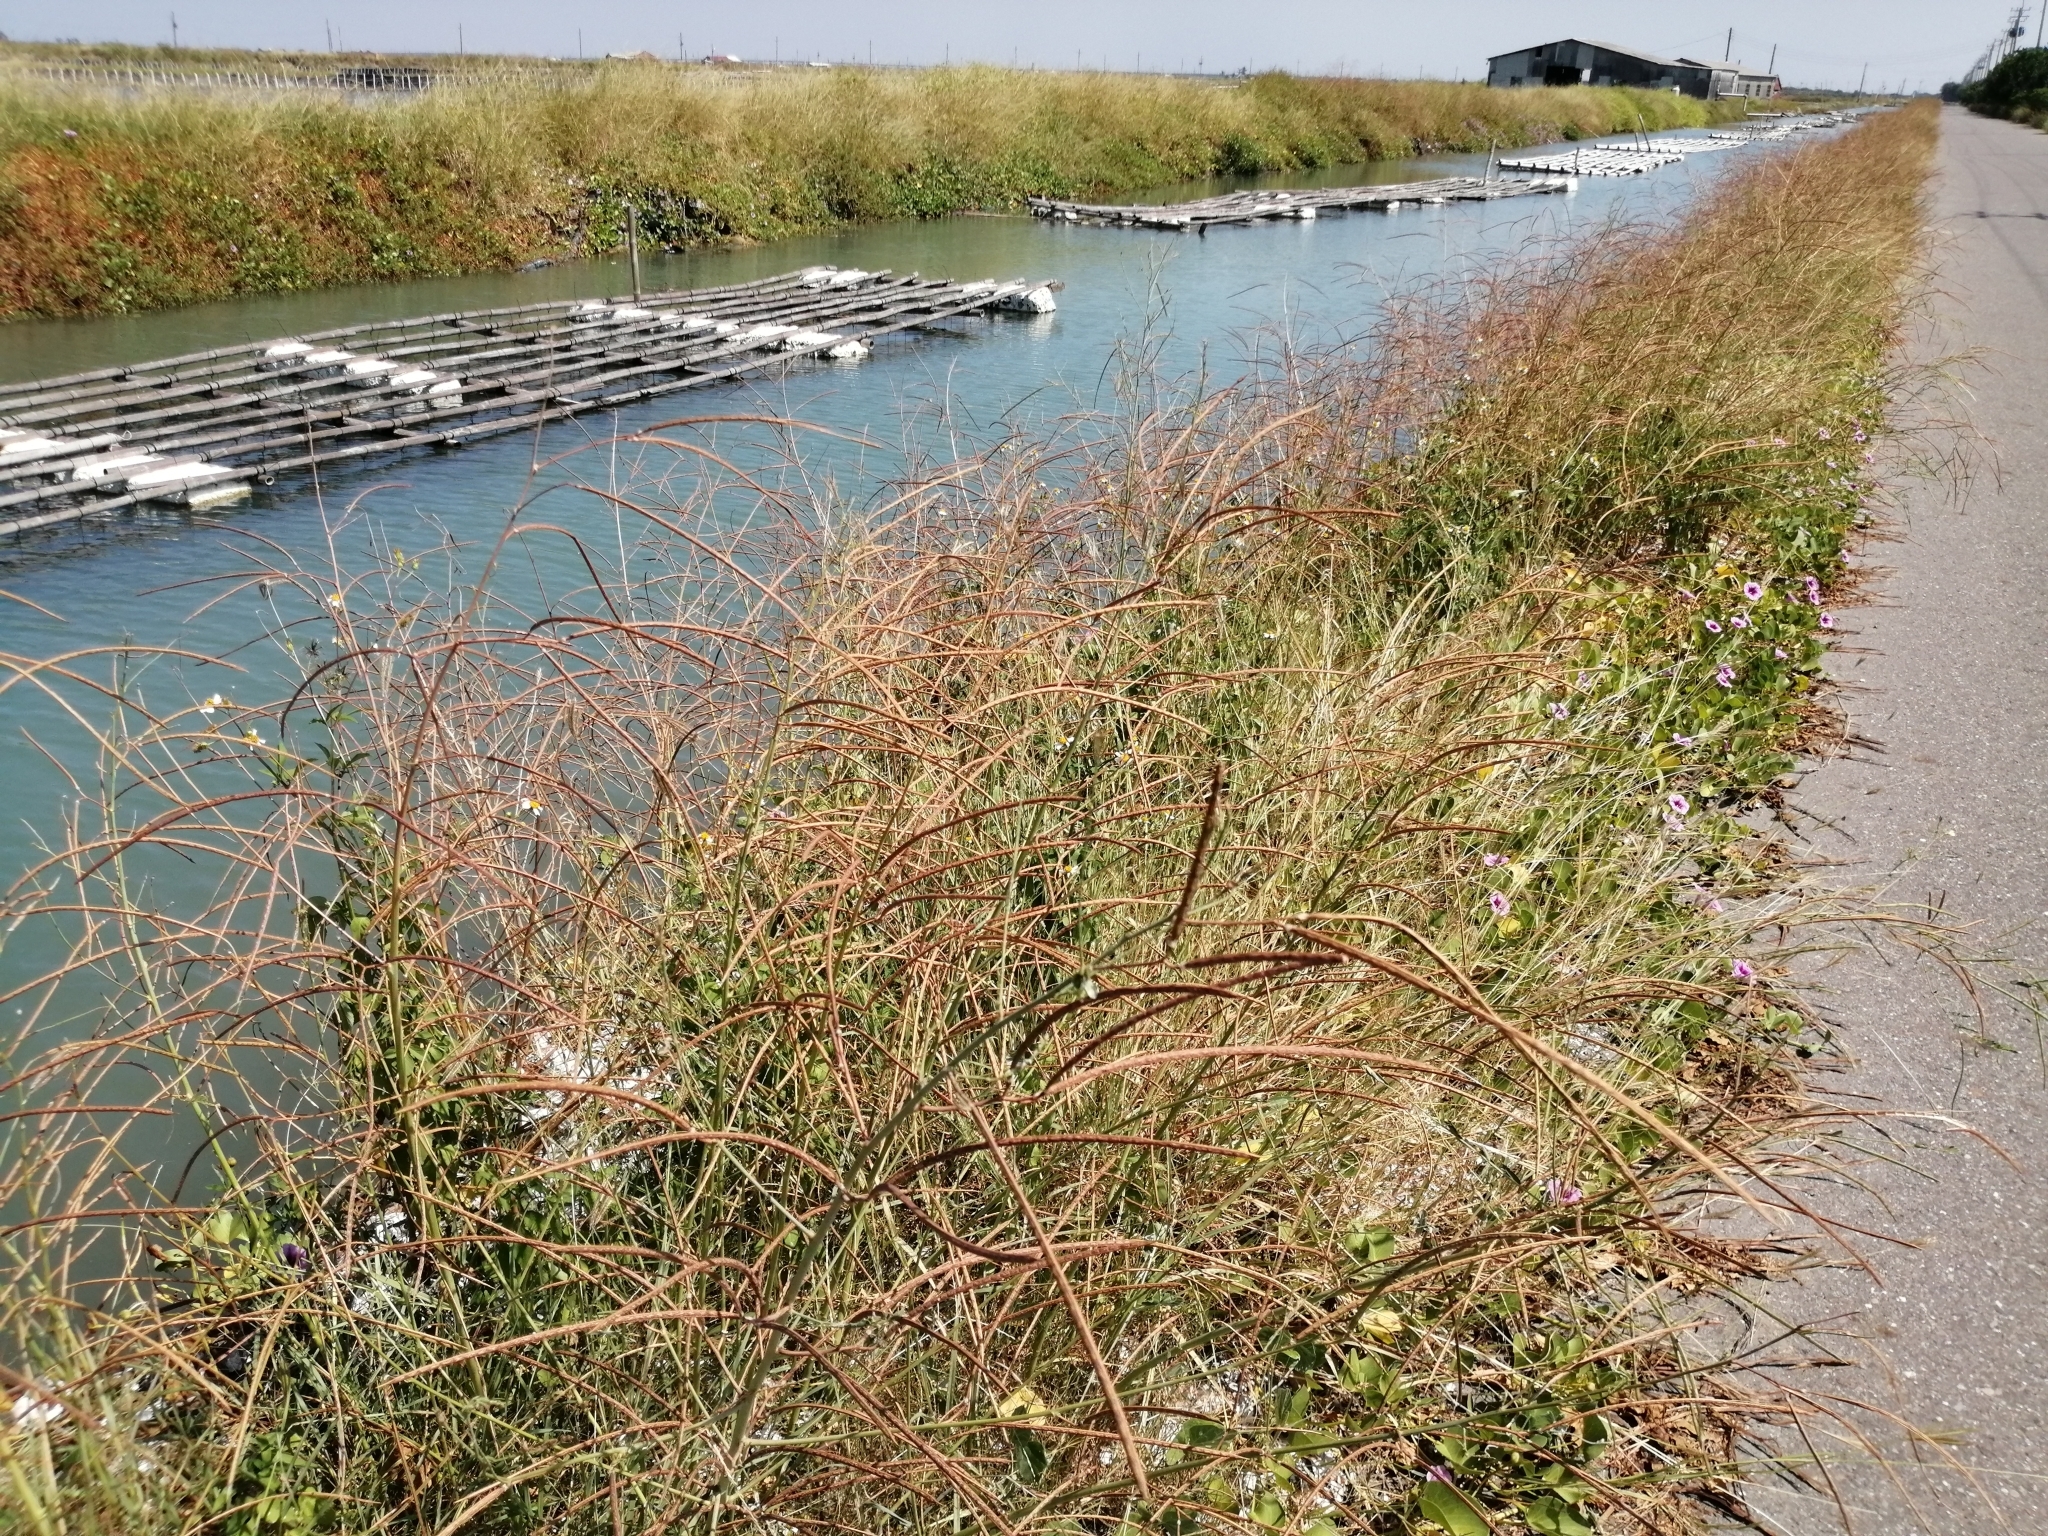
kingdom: Plantae
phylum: Tracheophyta
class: Magnoliopsida
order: Fabales
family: Fabaceae
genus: Sesbania
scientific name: Sesbania cannabina
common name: Canicha
